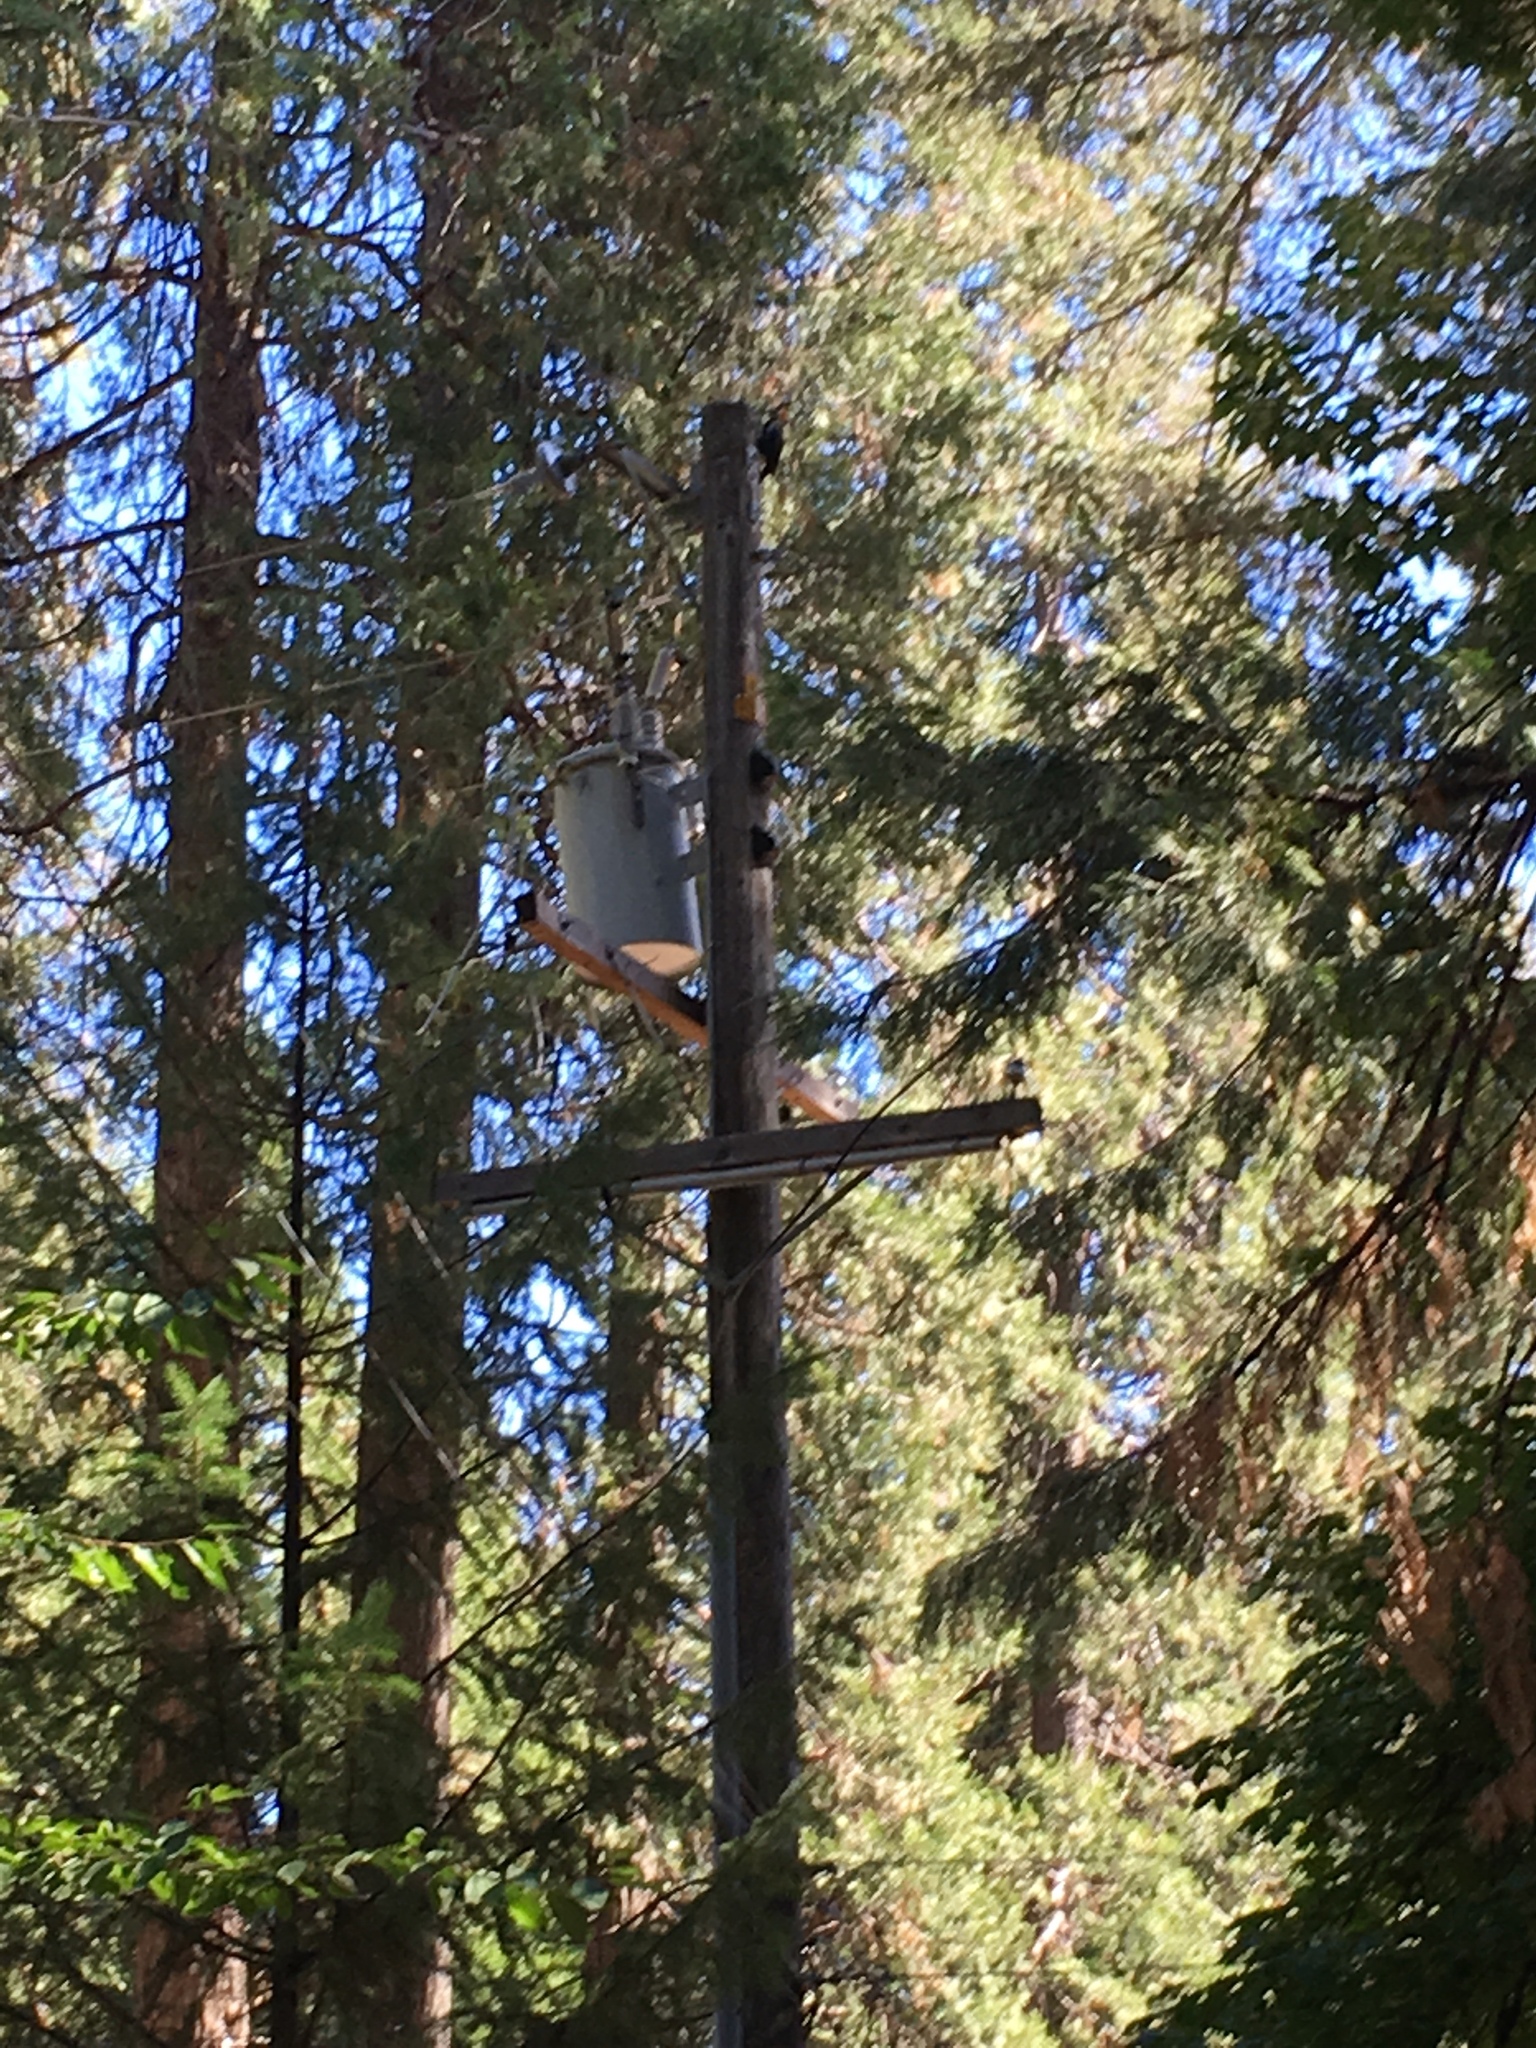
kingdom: Animalia
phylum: Chordata
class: Aves
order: Piciformes
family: Picidae
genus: Dryocopus
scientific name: Dryocopus pileatus
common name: Pileated woodpecker
